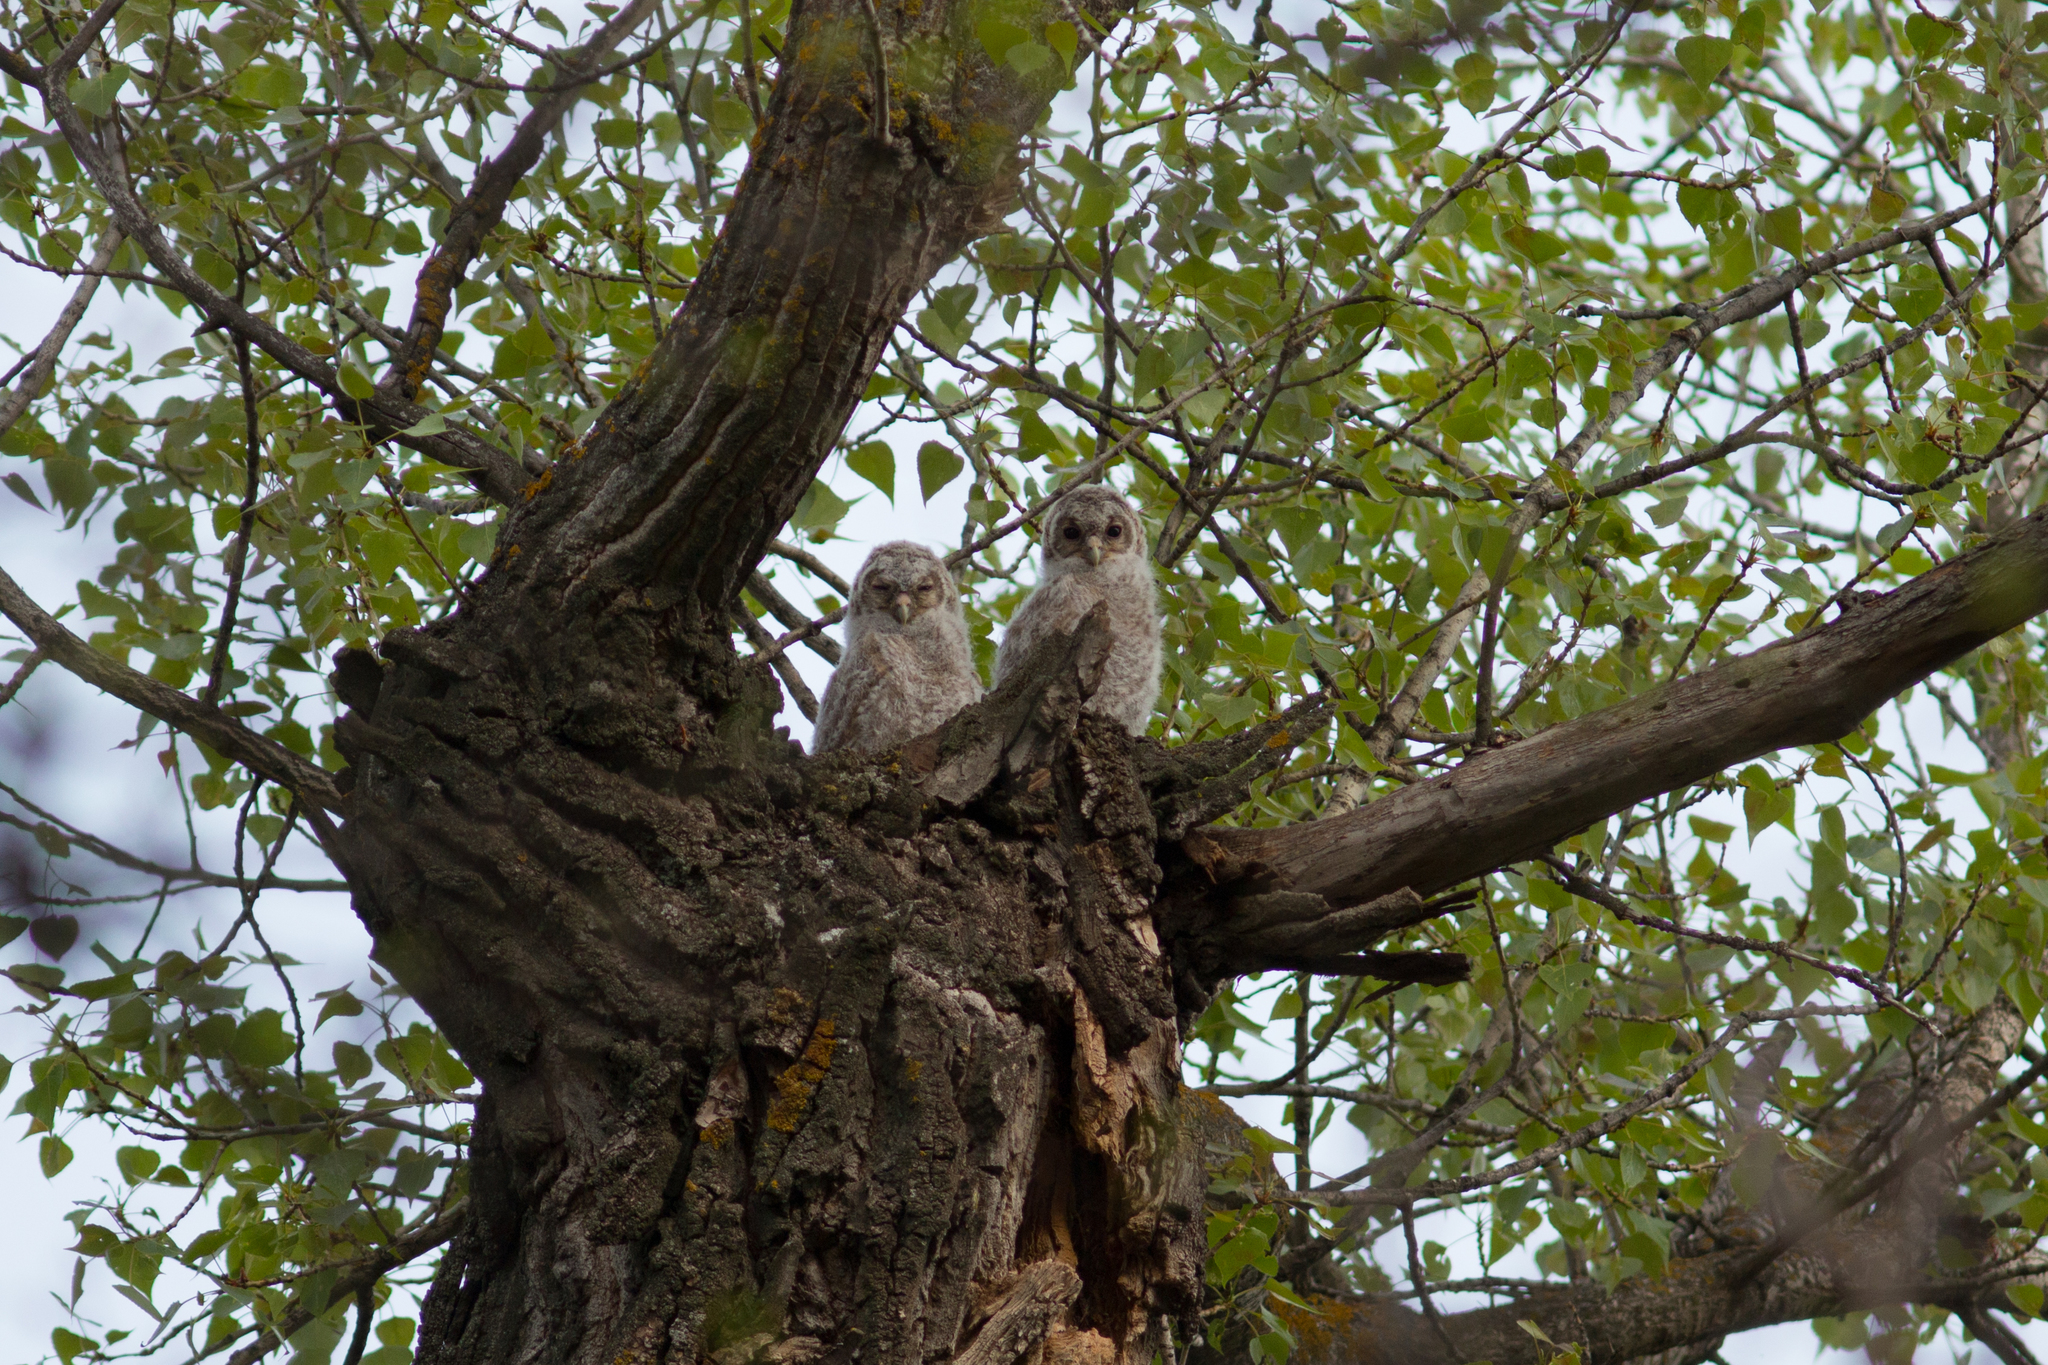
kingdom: Animalia
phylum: Chordata
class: Aves
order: Strigiformes
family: Strigidae
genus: Strix
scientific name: Strix aluco
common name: Tawny owl
